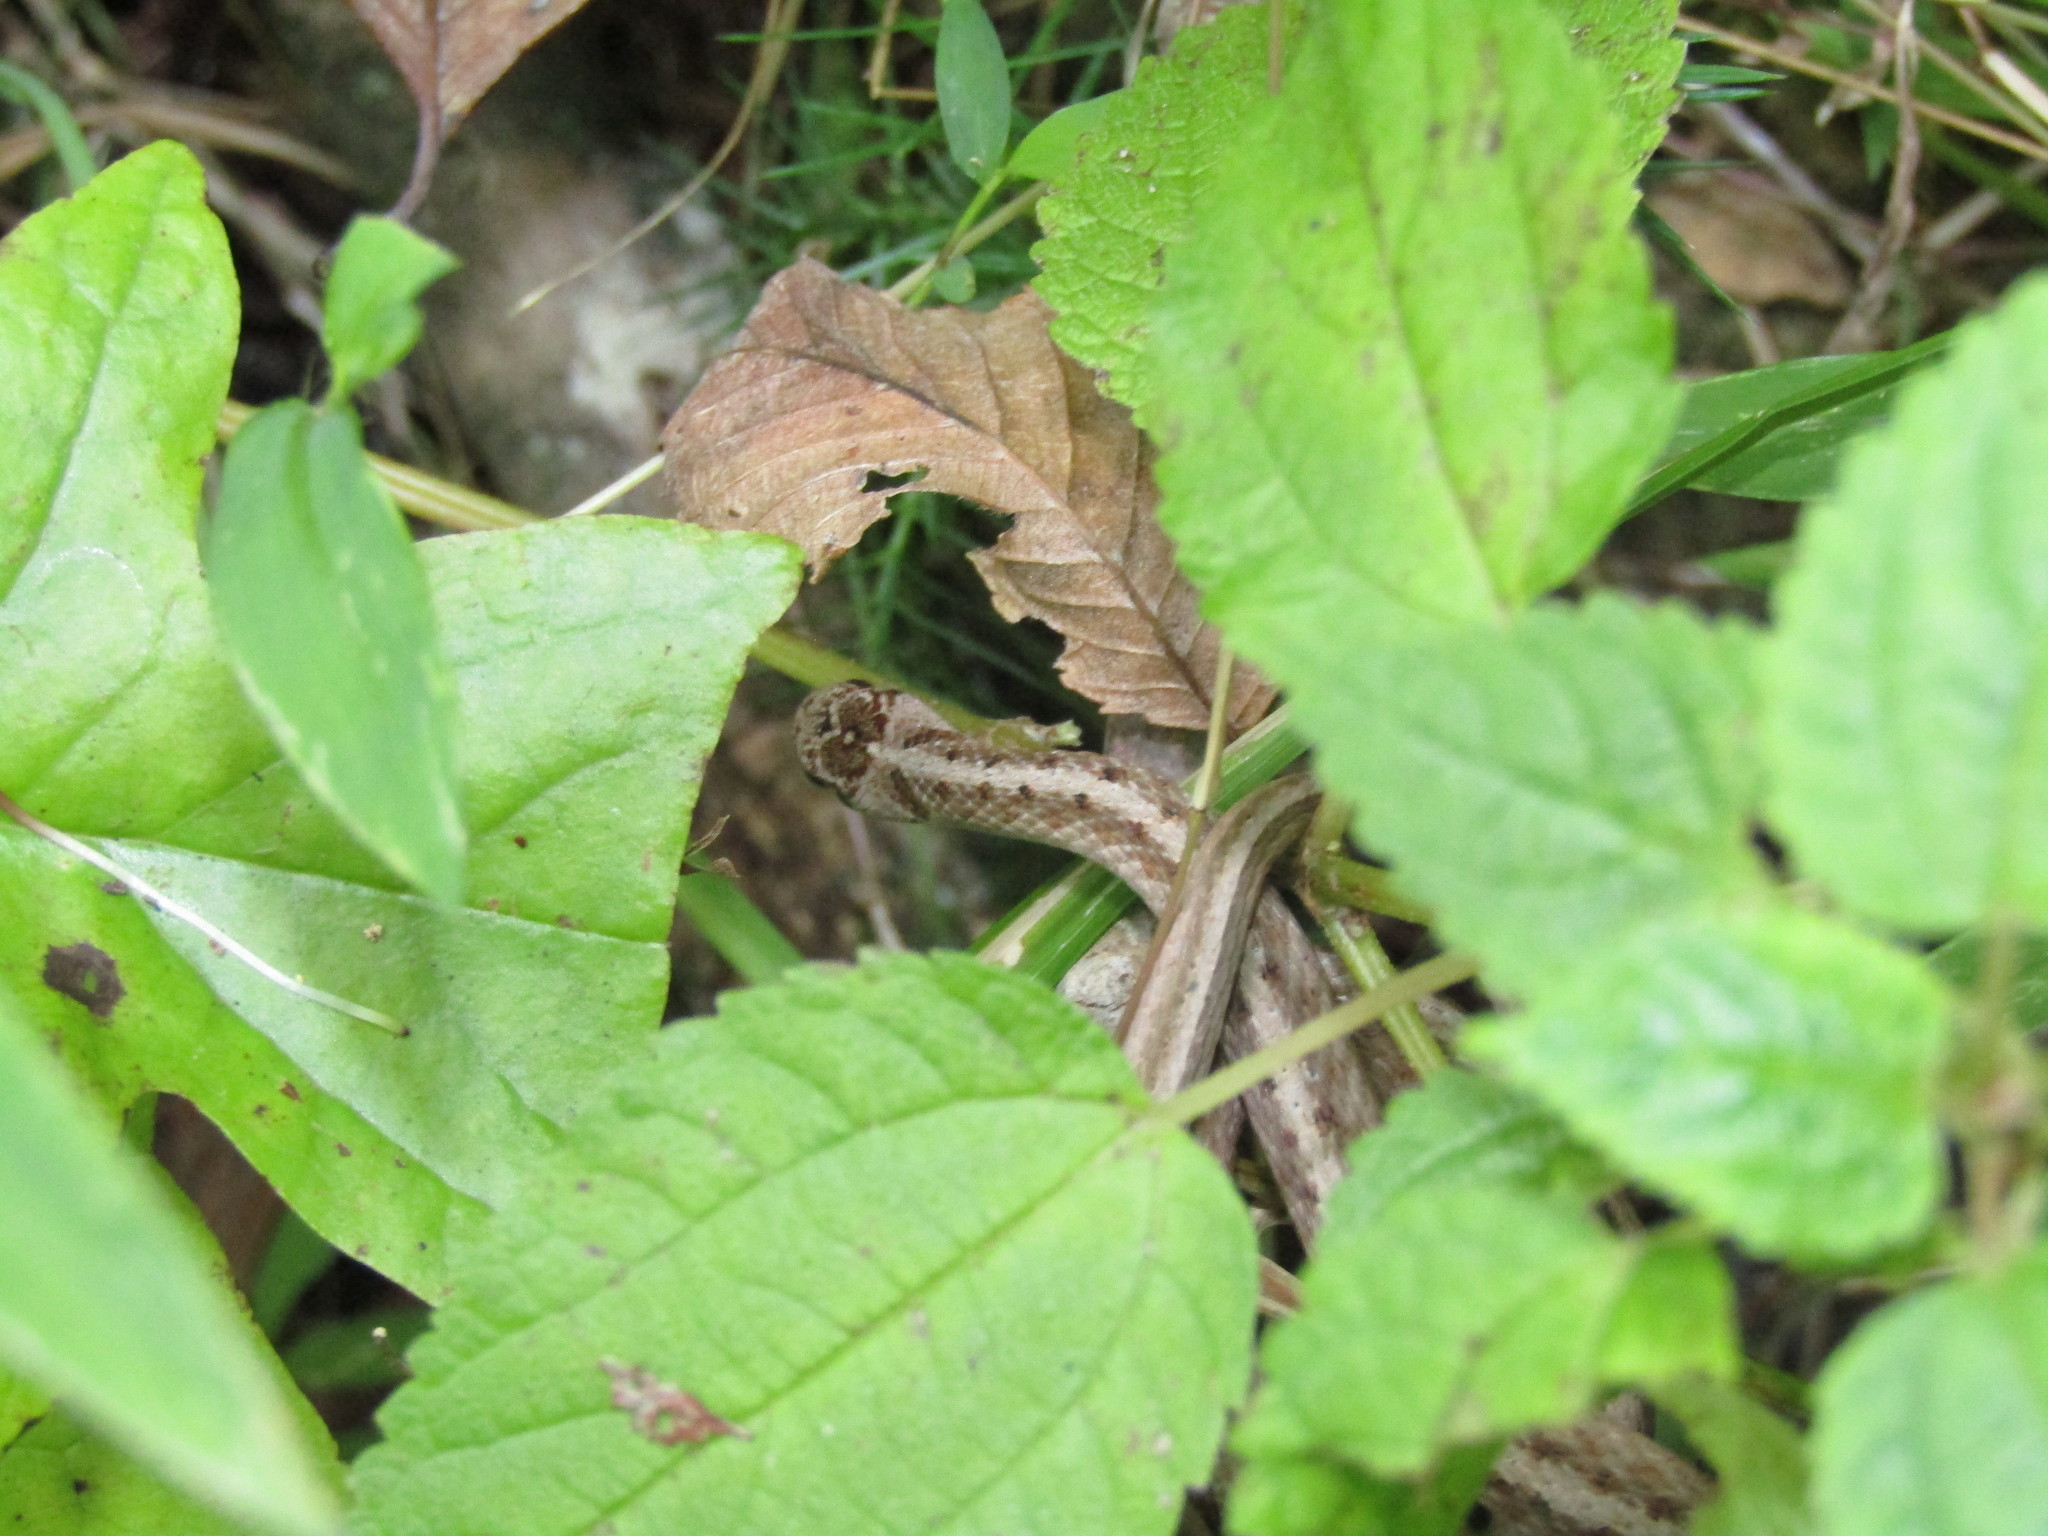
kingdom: Animalia
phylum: Chordata
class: Squamata
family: Colubridae
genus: Storeria
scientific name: Storeria dekayi
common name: (dekay’s) brown snake
